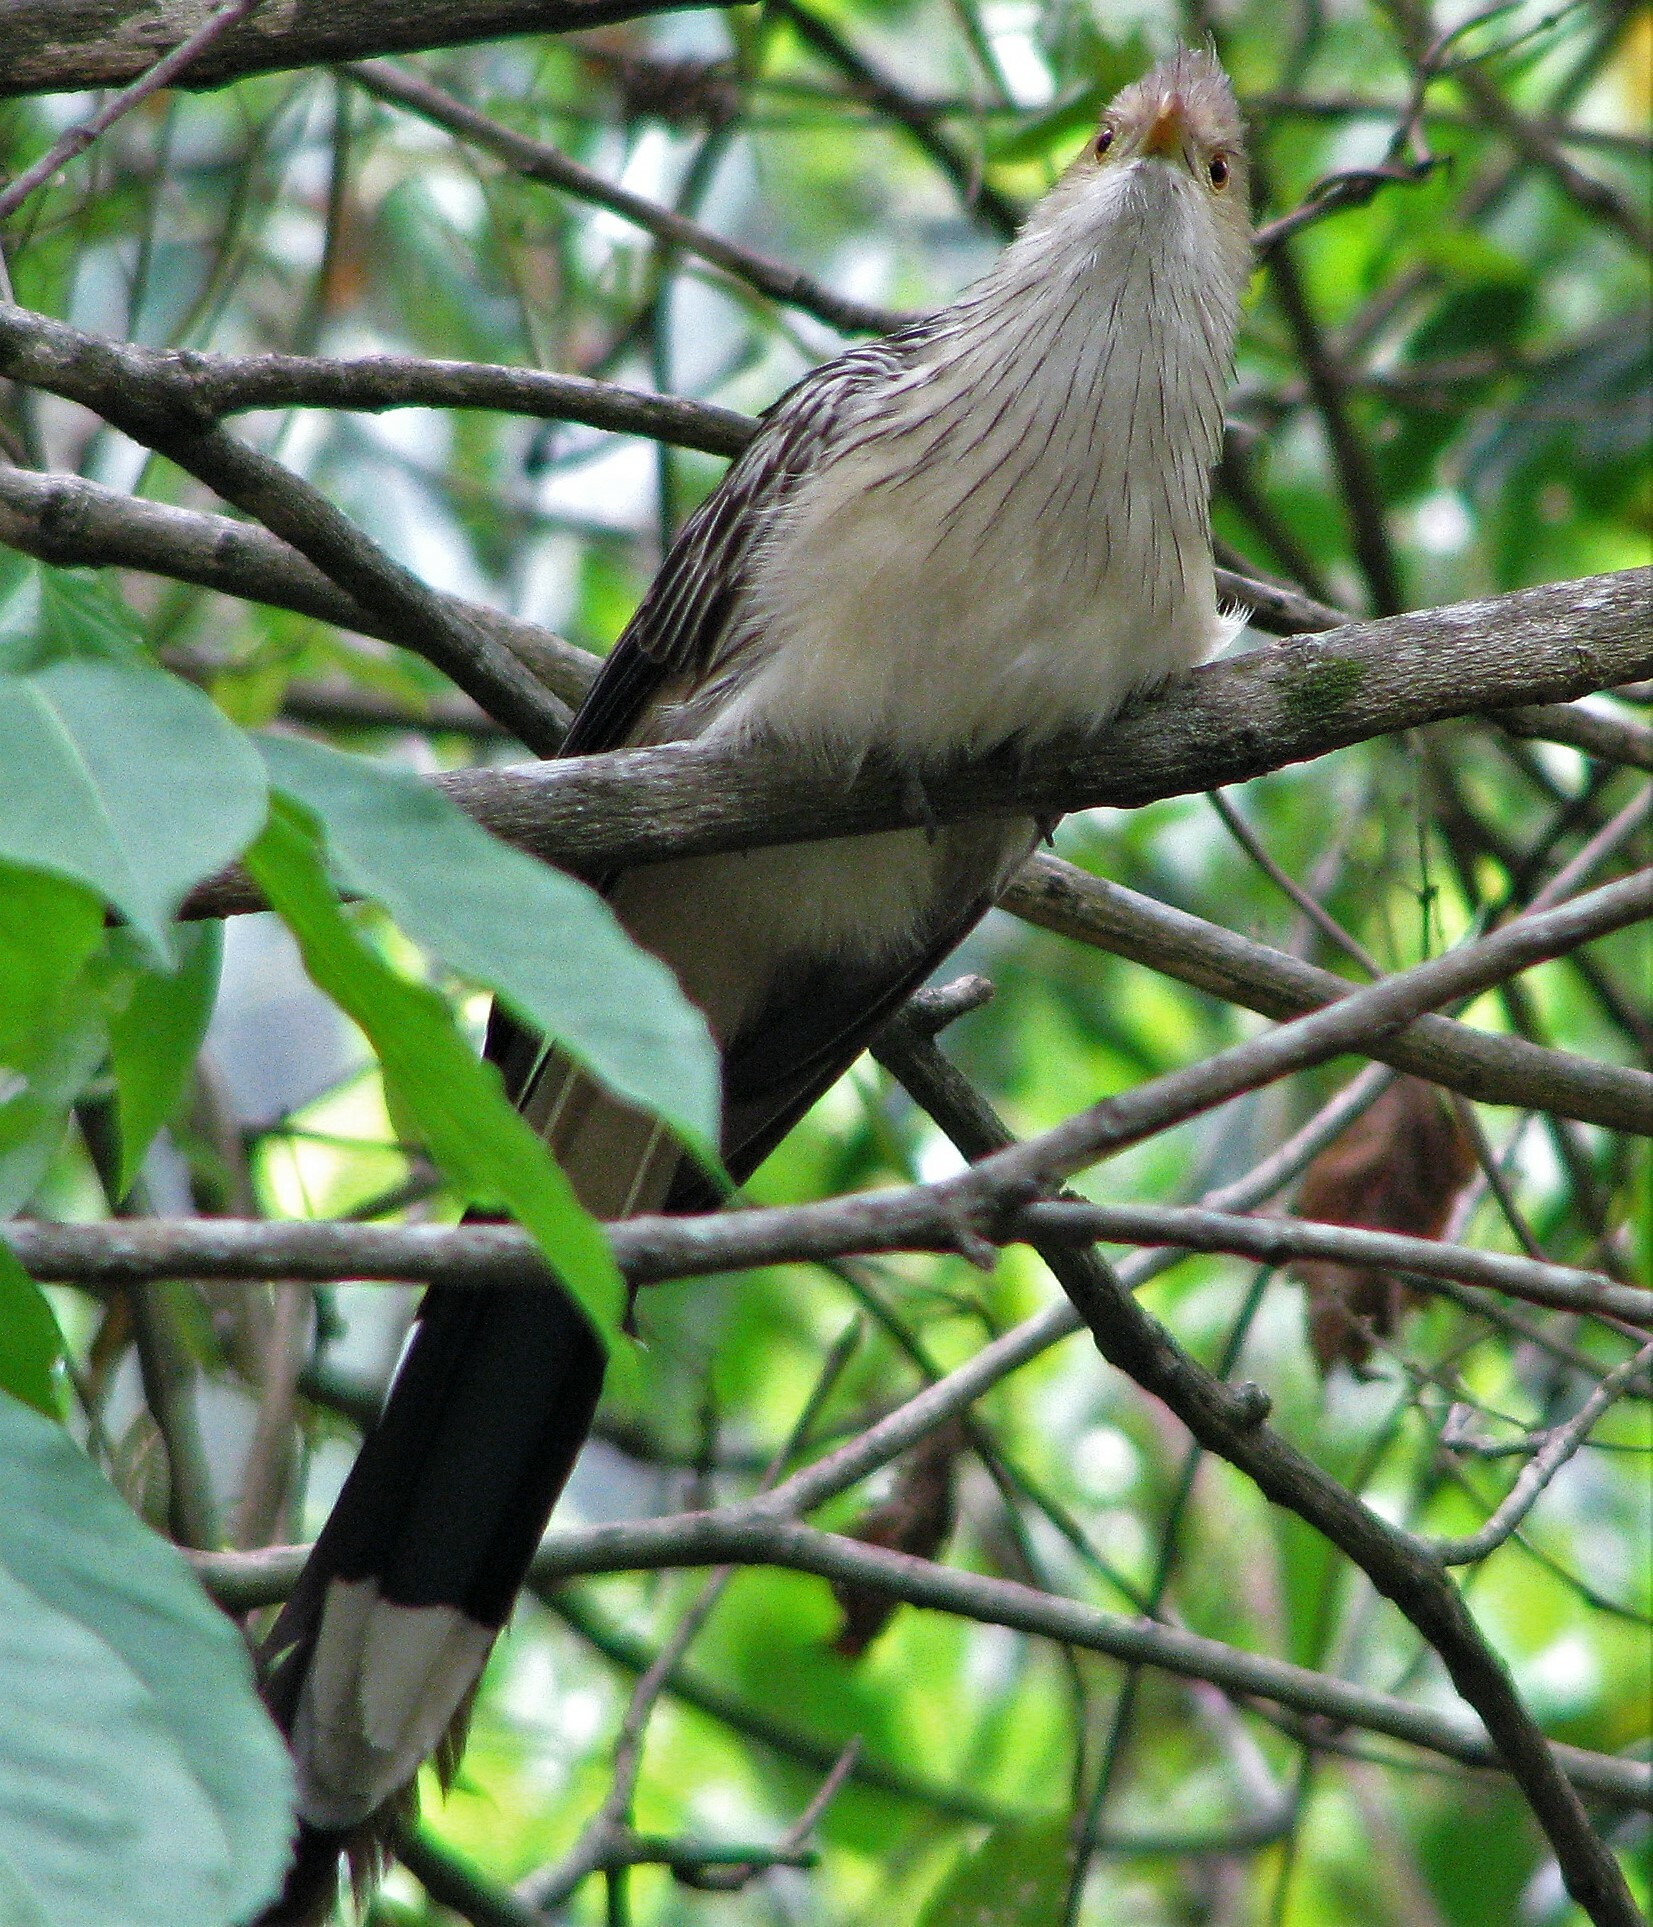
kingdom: Animalia
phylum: Chordata
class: Aves
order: Cuculiformes
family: Cuculidae
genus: Guira
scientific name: Guira guira
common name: Guira cuckoo
